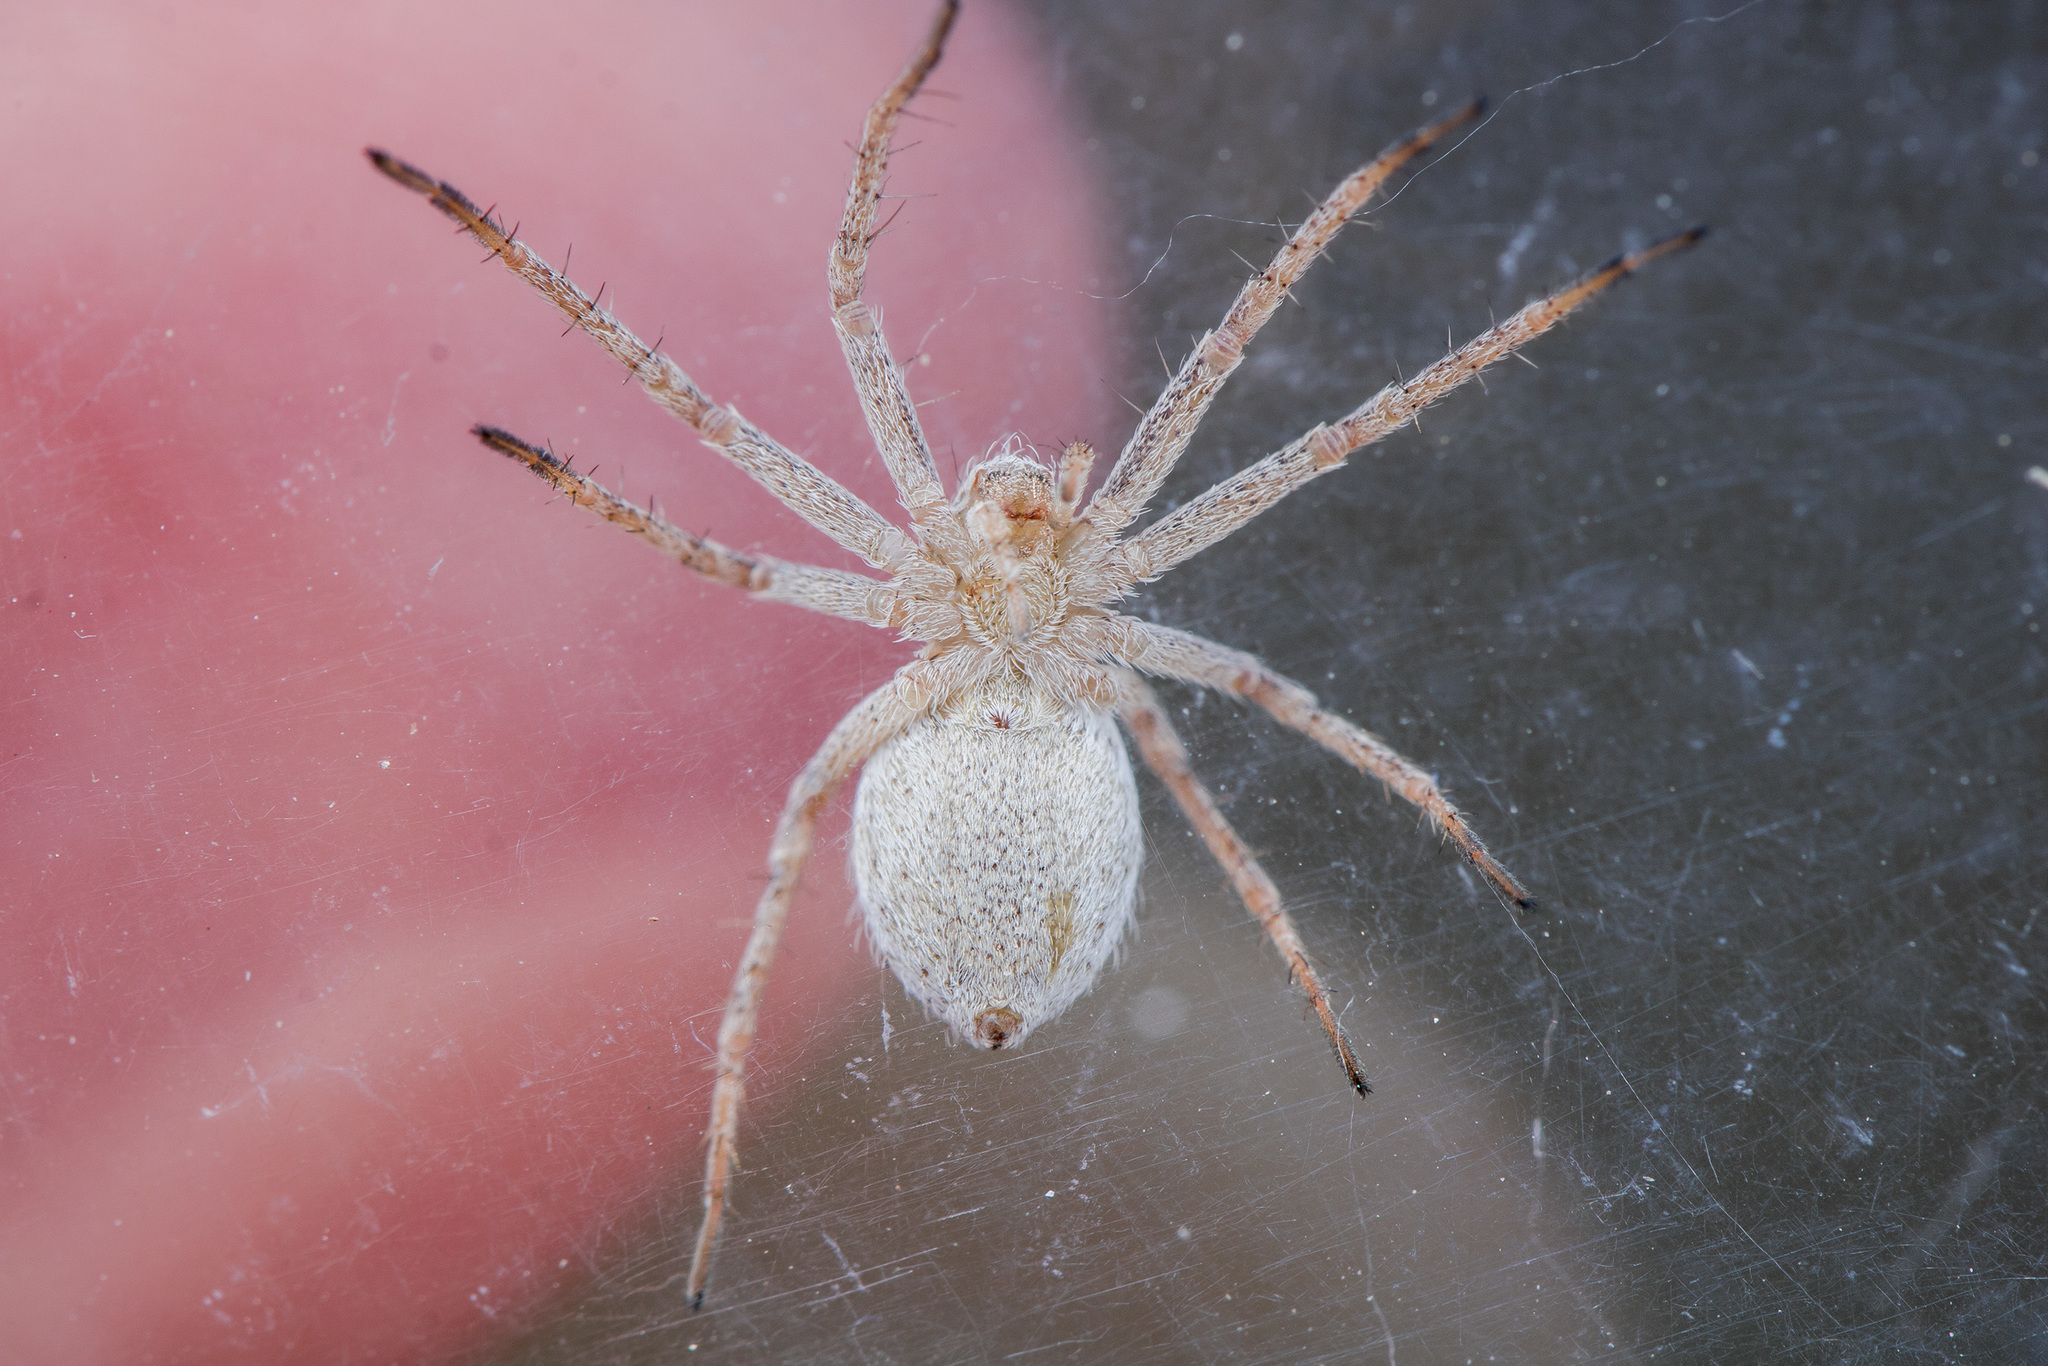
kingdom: Animalia
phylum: Arthropoda
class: Arachnida
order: Araneae
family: Philodromidae
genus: Thanatus
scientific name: Thanatus fabricii
